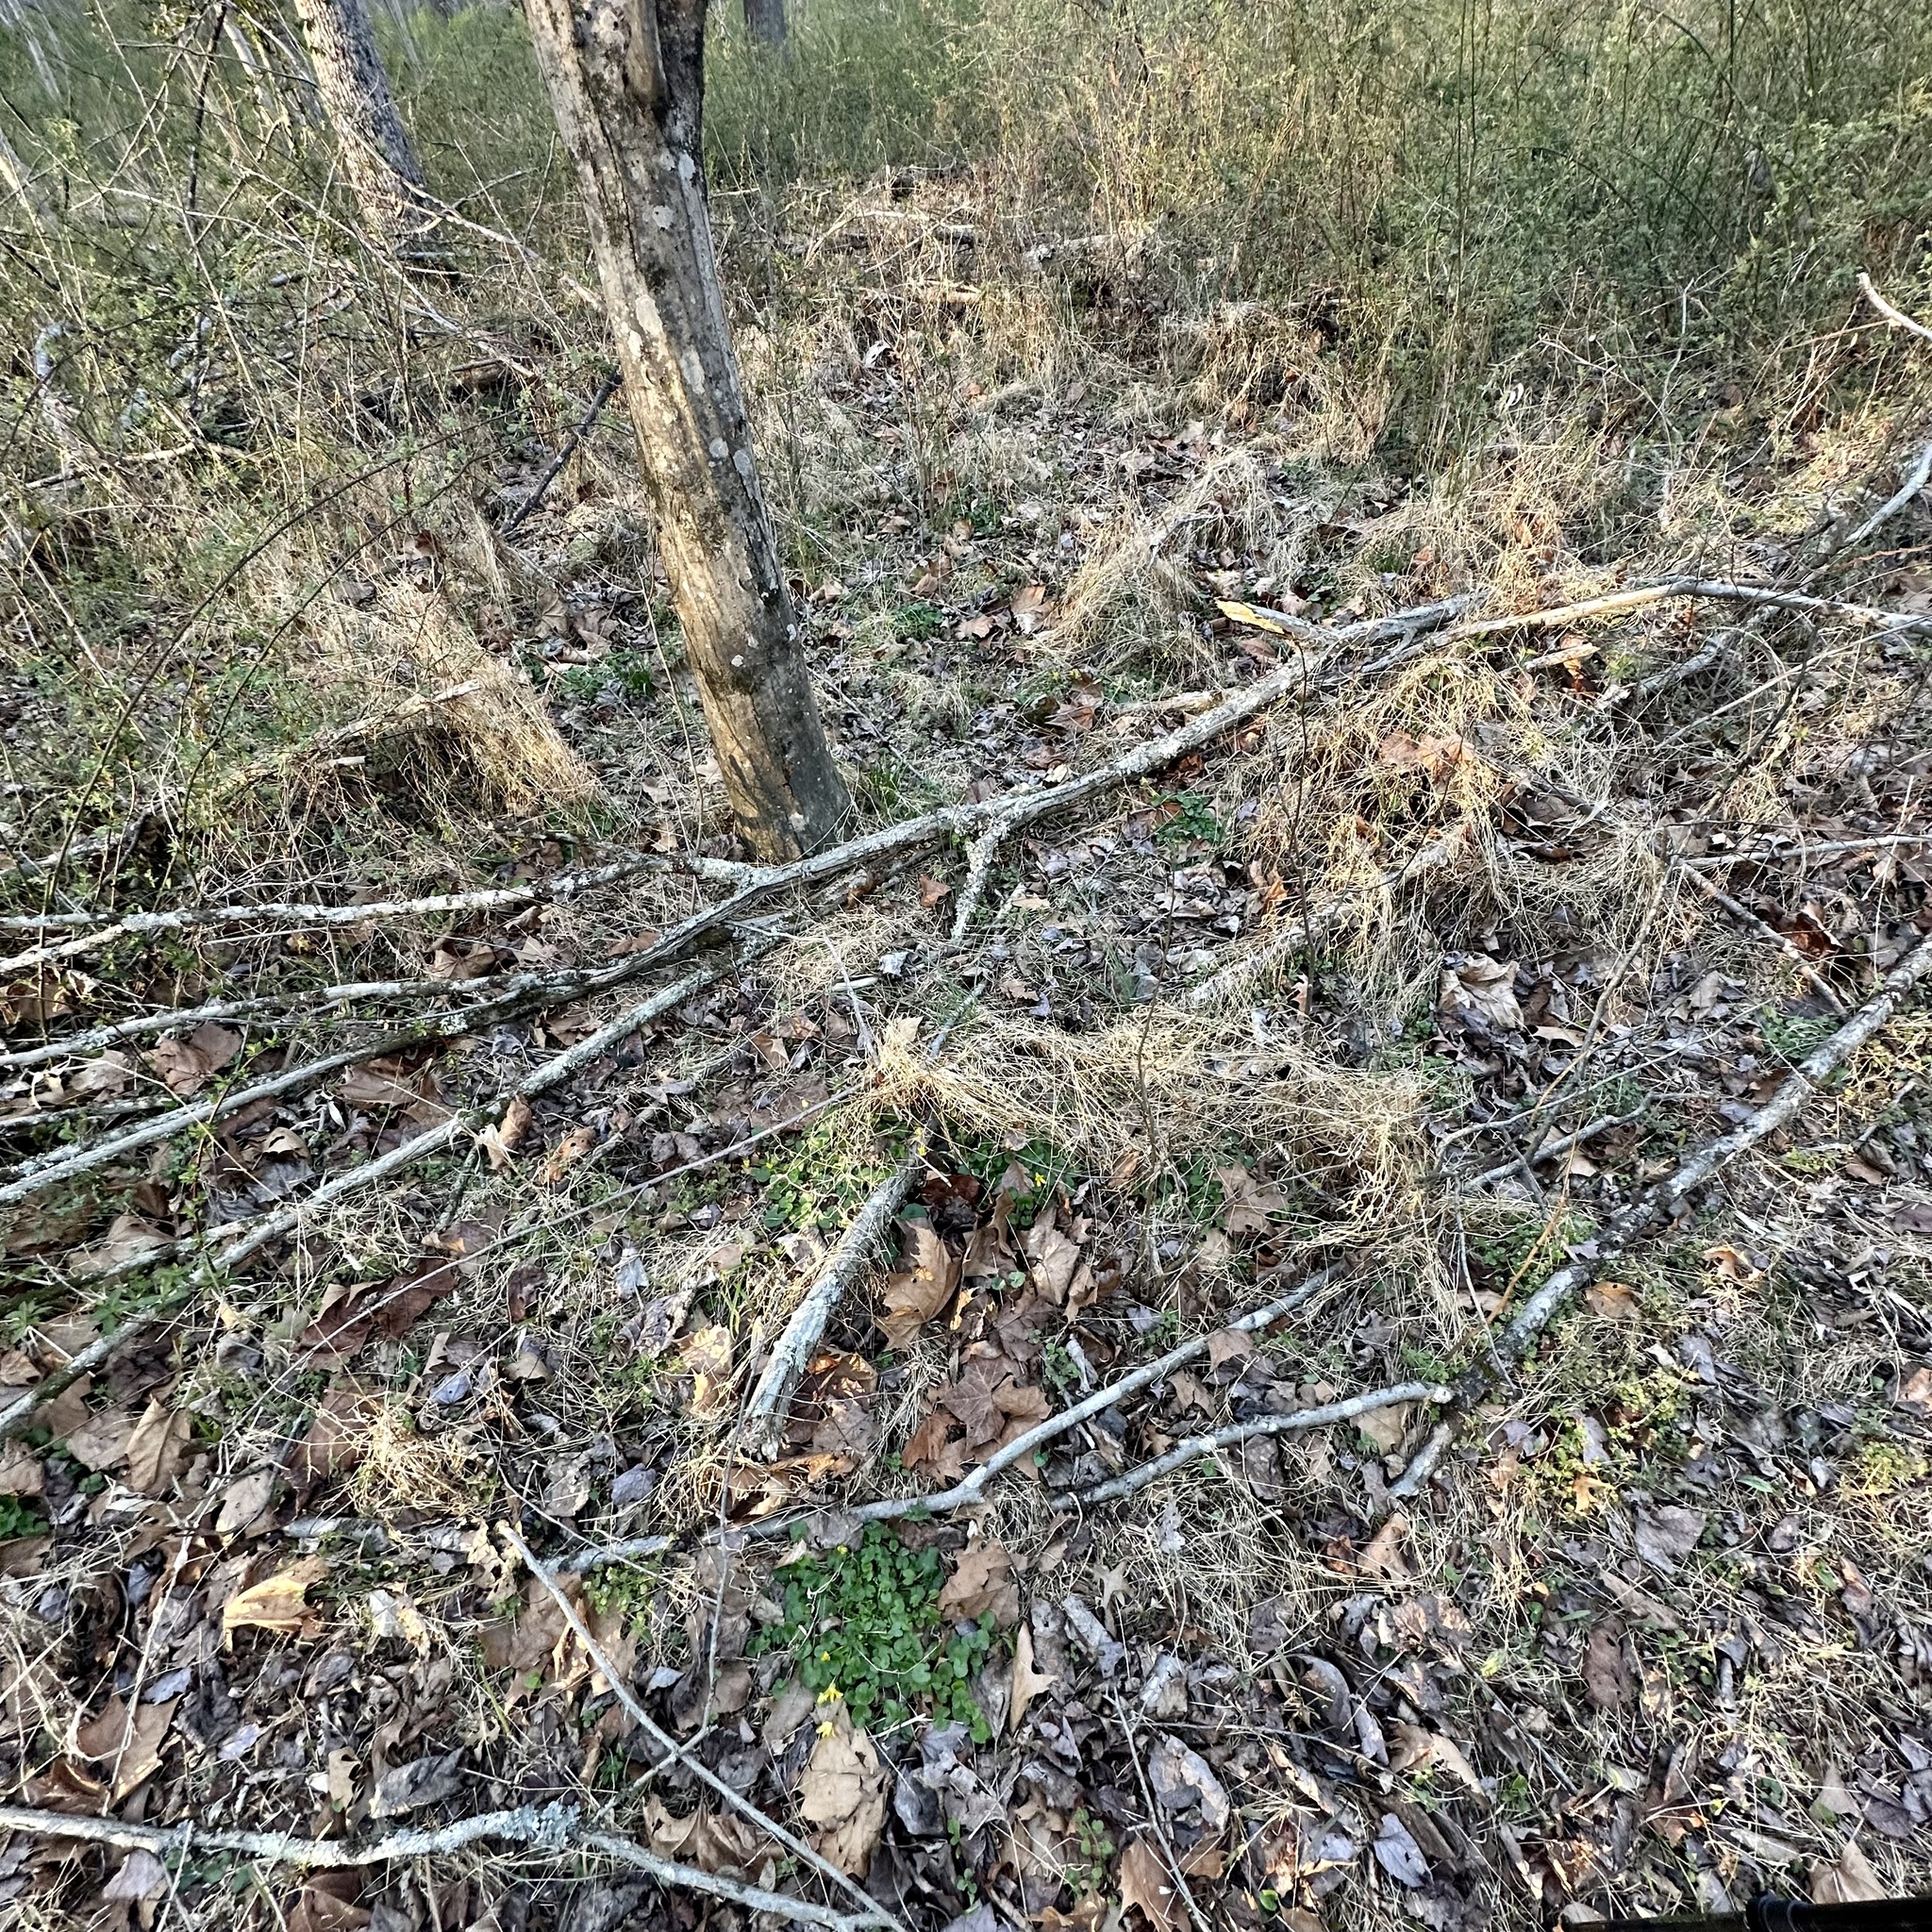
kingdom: Plantae
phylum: Tracheophyta
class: Magnoliopsida
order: Ranunculales
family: Ranunculaceae
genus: Ficaria
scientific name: Ficaria verna
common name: Lesser celandine
